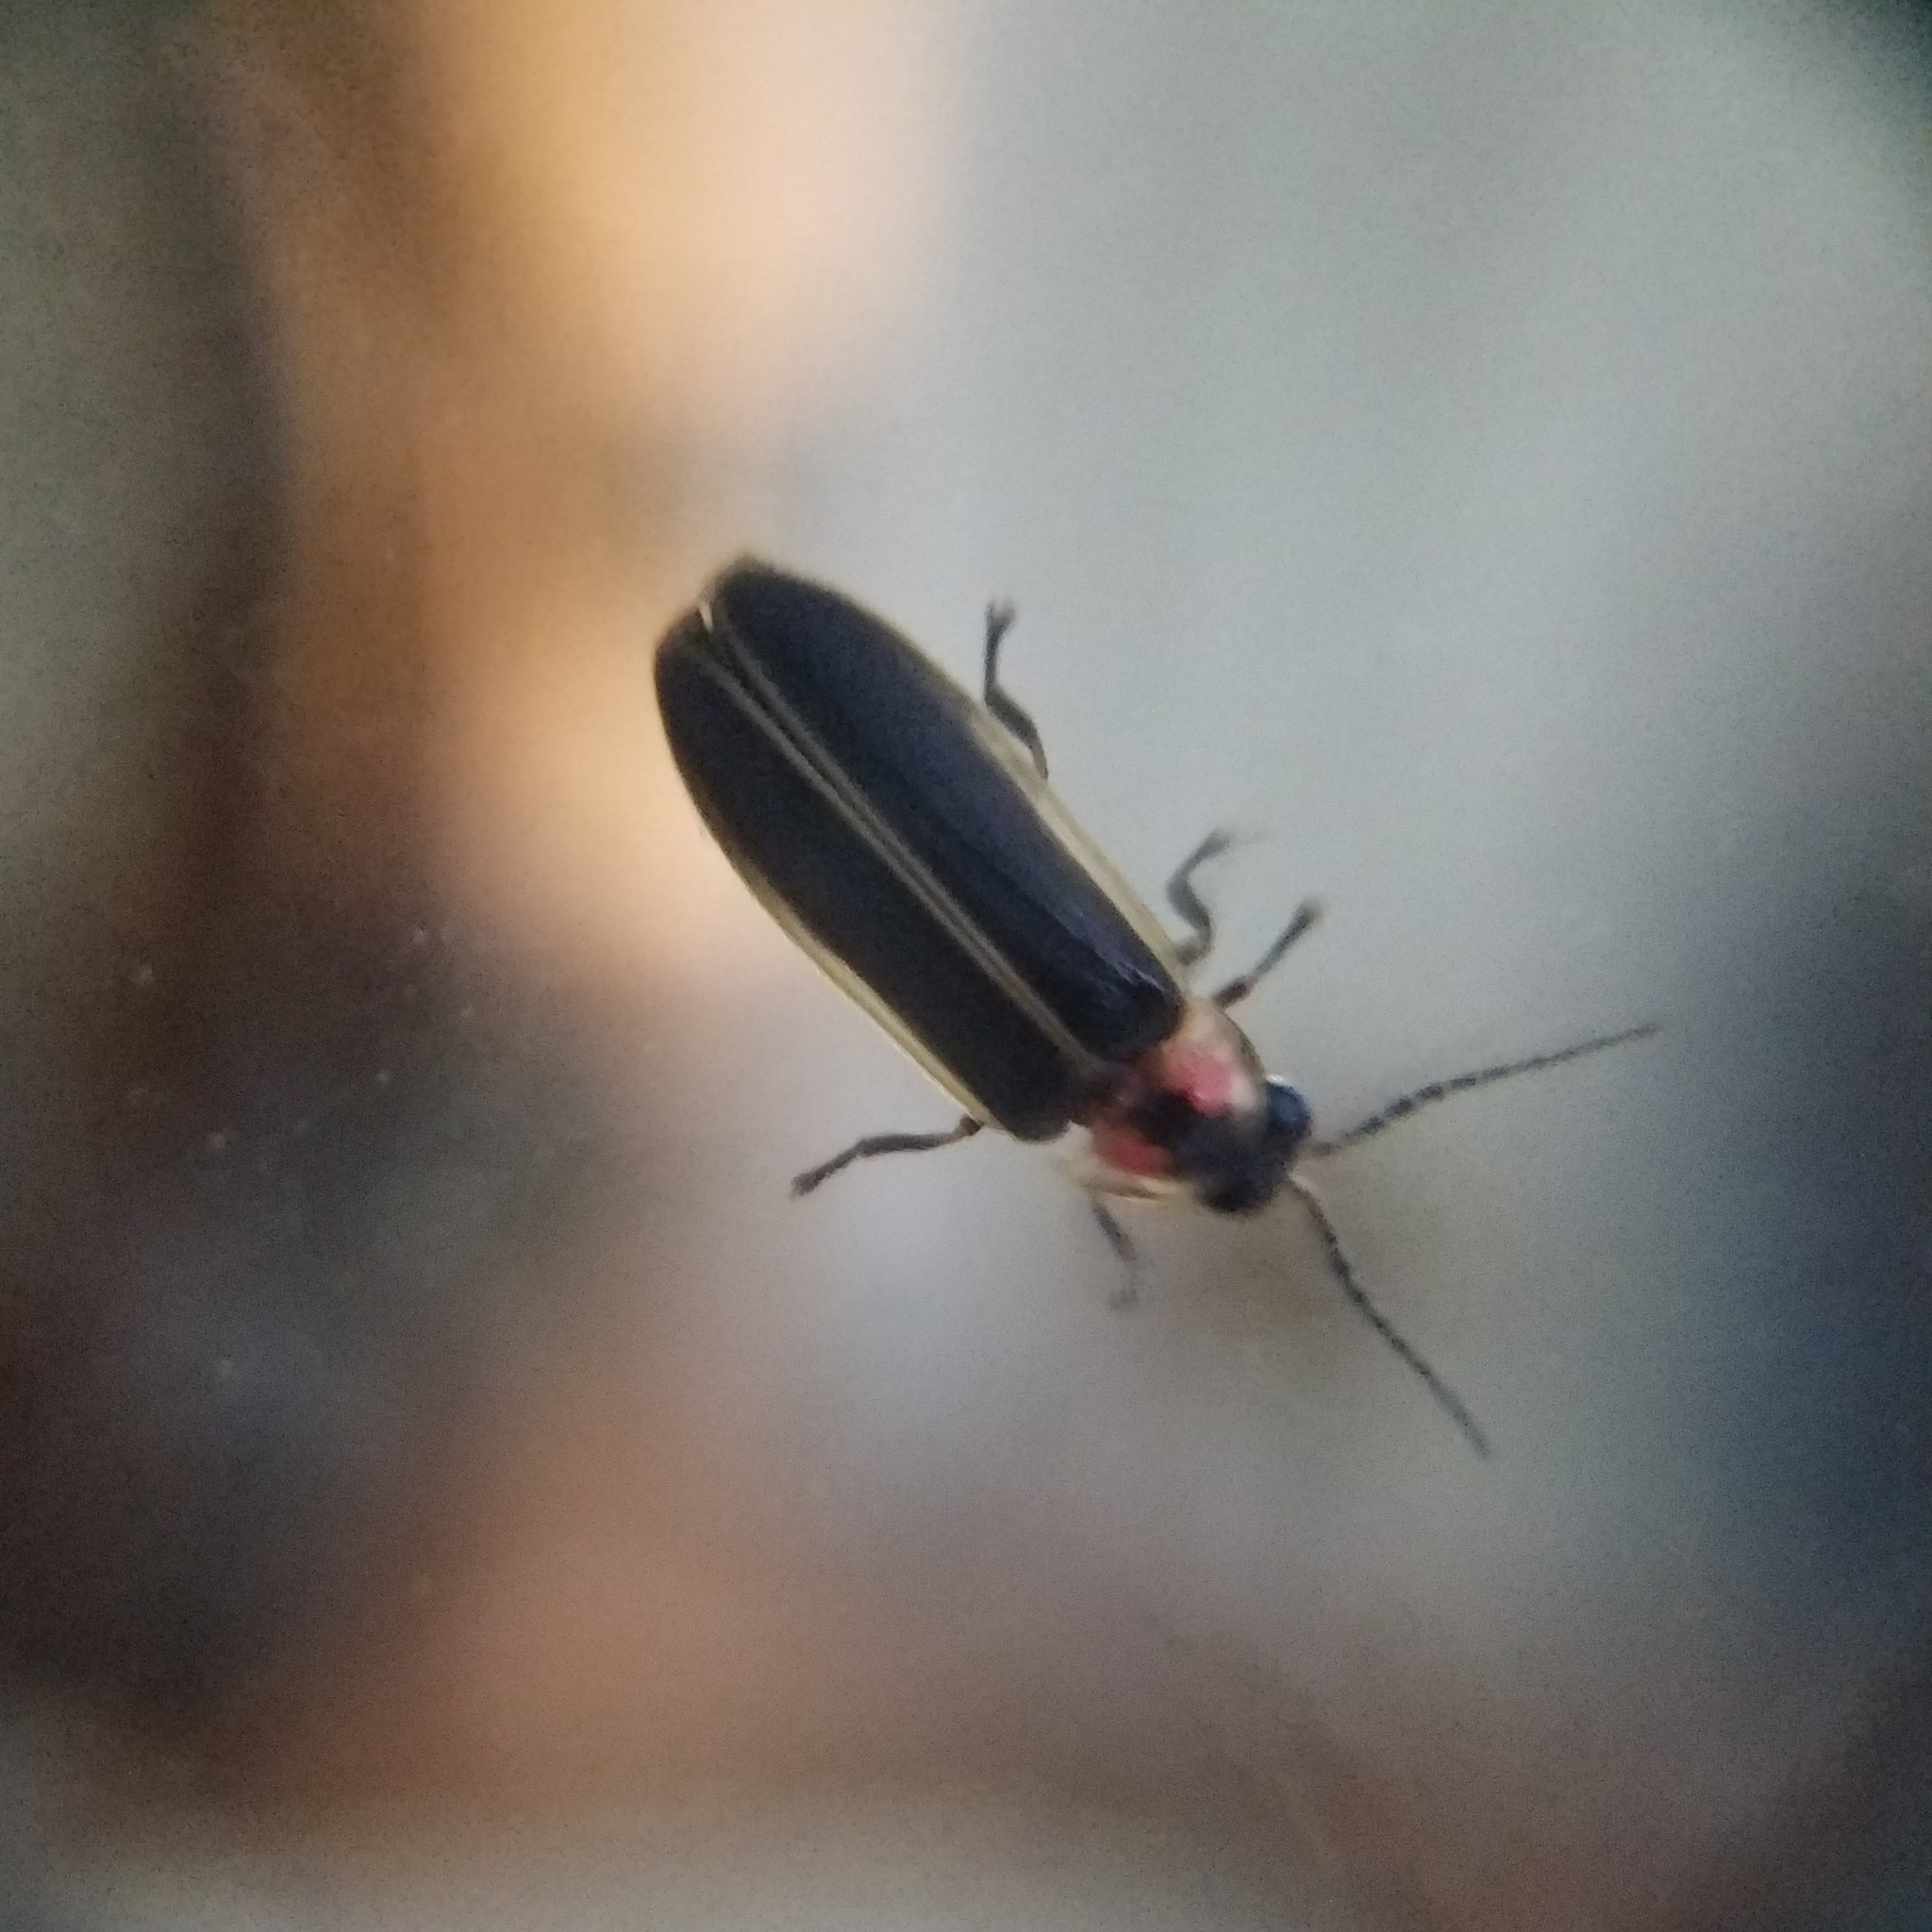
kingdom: Animalia
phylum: Arthropoda
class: Insecta
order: Coleoptera
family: Lampyridae
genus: Photinus
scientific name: Photinus pyralis
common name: Big dipper firefly
